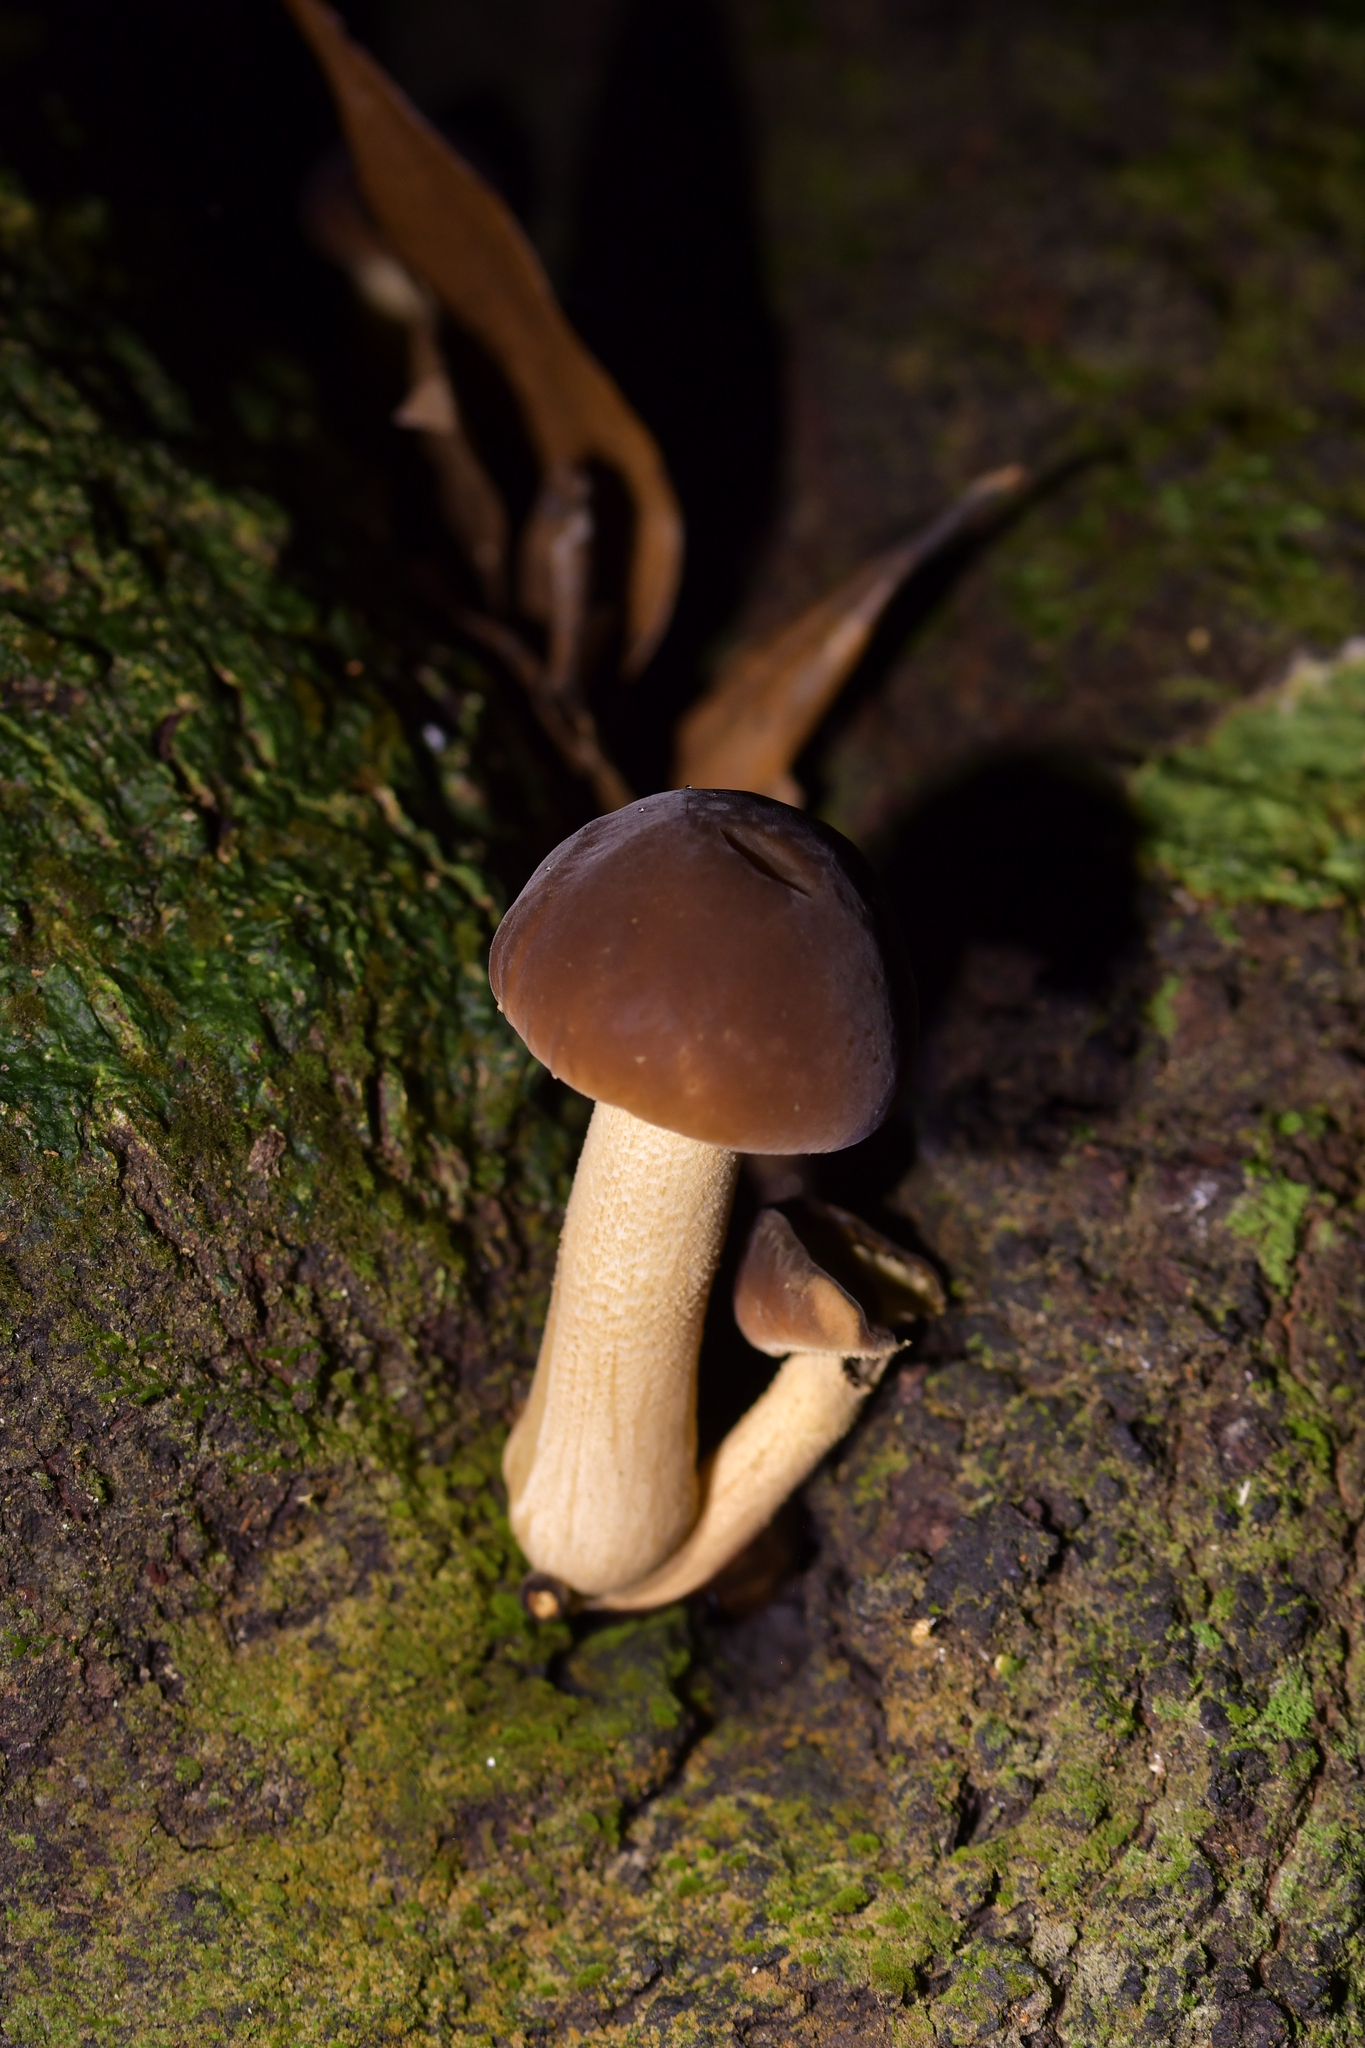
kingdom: Fungi
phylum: Basidiomycota
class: Agaricomycetes
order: Agaricales
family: Tubariaceae
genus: Cyclocybe
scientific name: Cyclocybe parasitica
